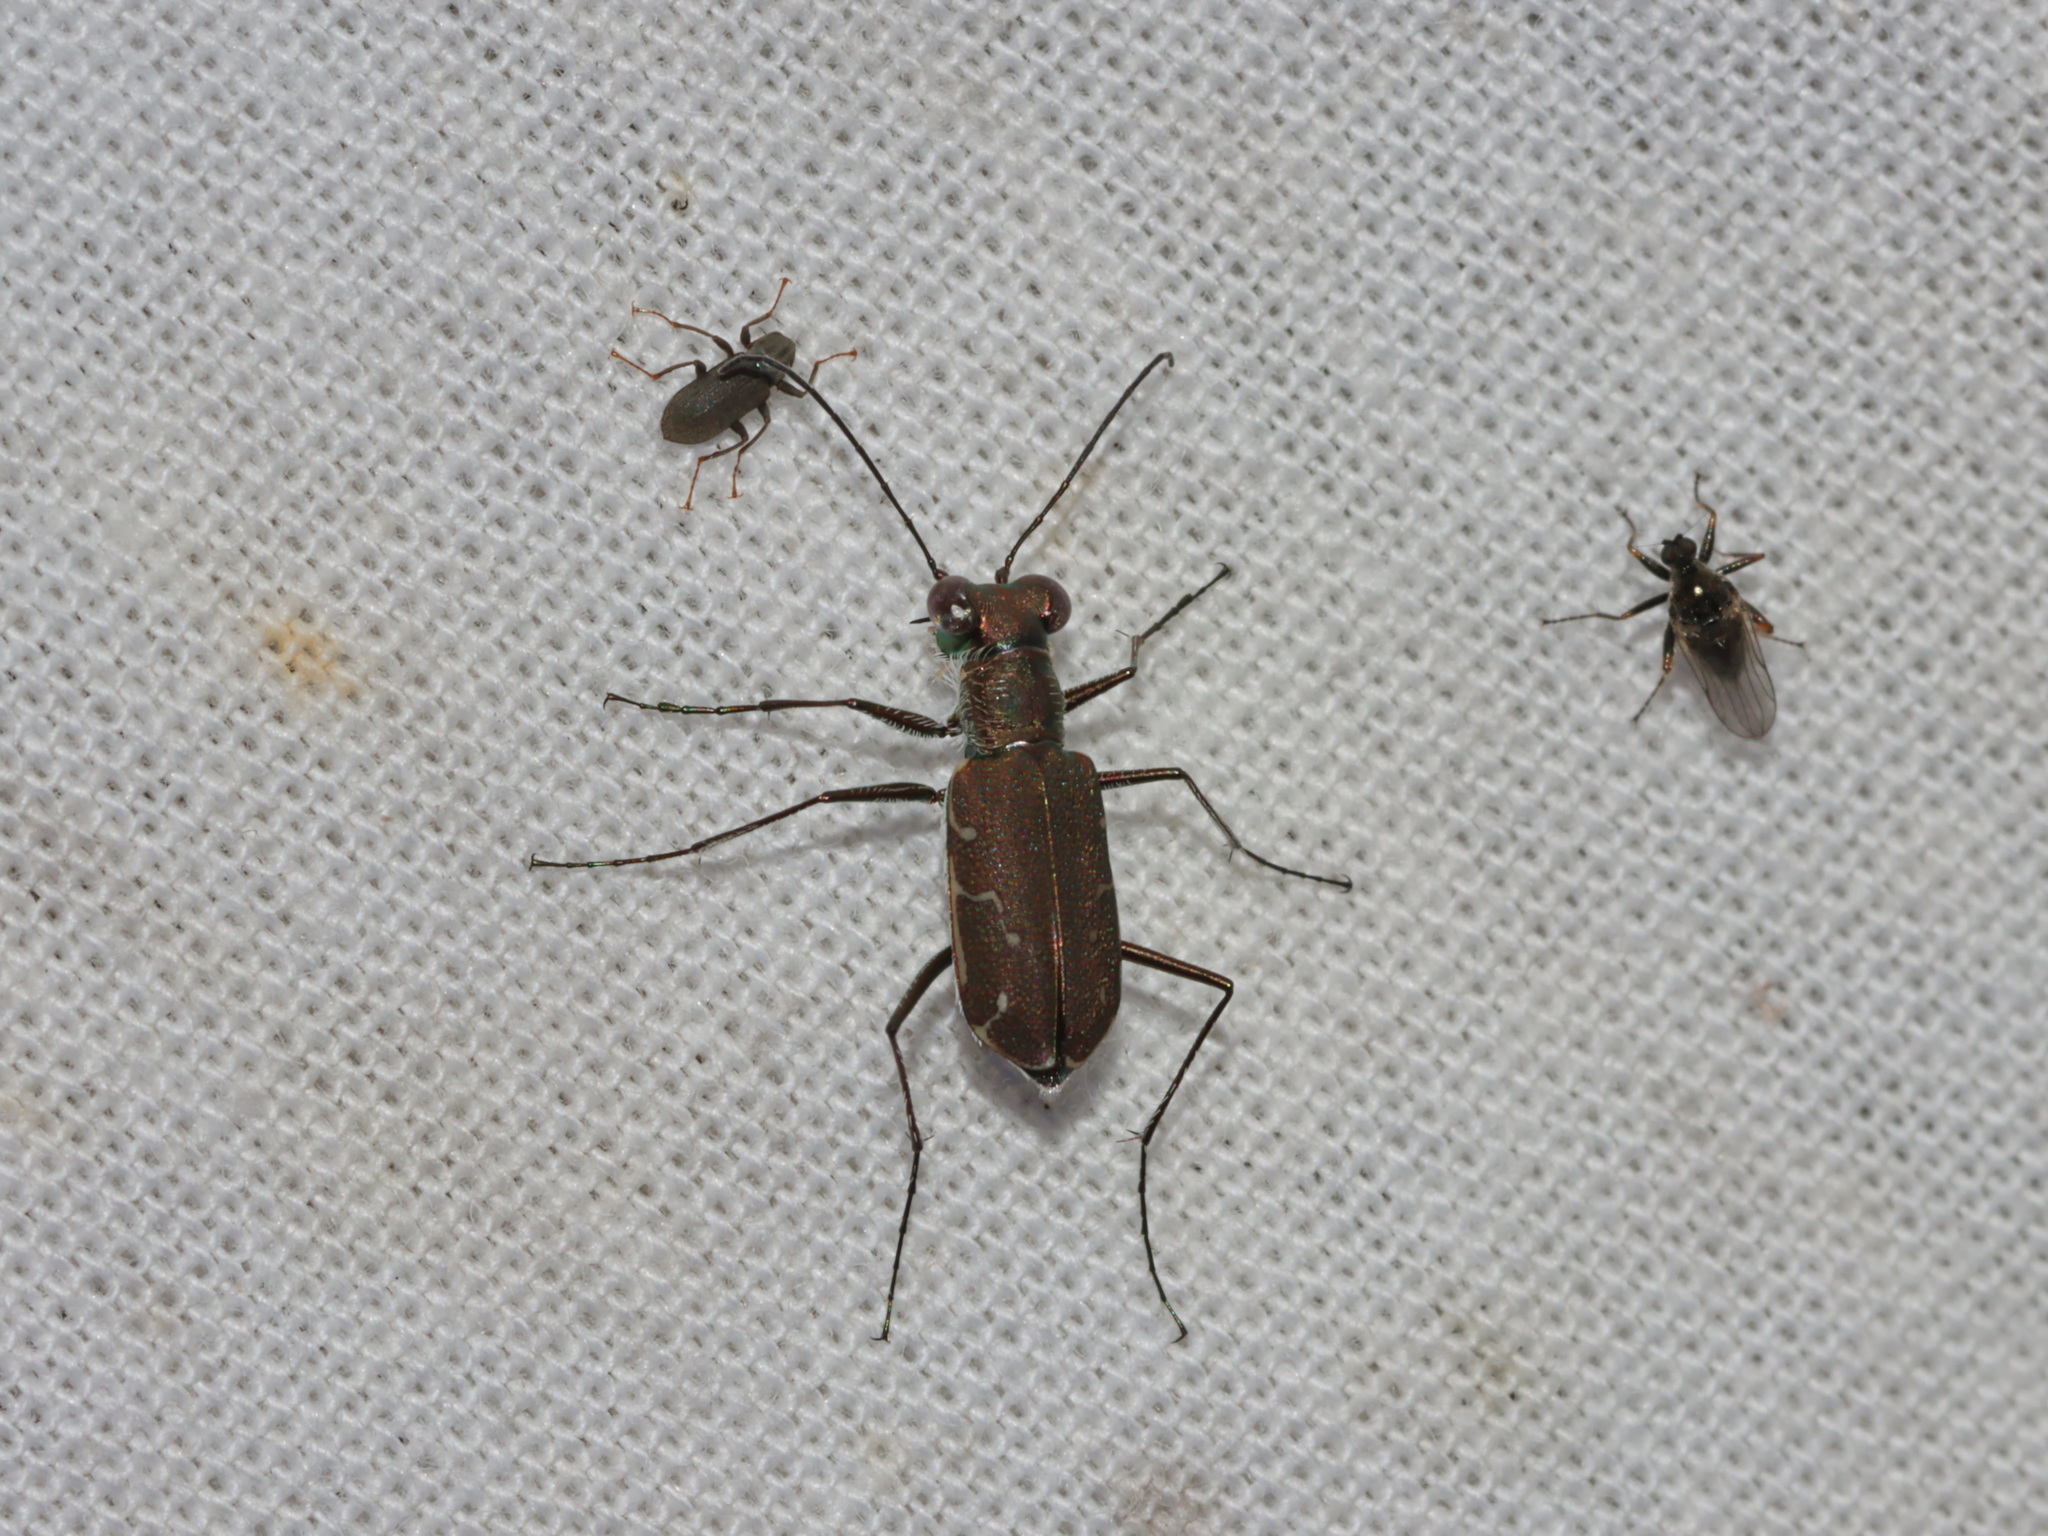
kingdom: Animalia
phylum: Arthropoda
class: Insecta
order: Coleoptera
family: Carabidae
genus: Cylindera
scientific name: Cylindera minuta
